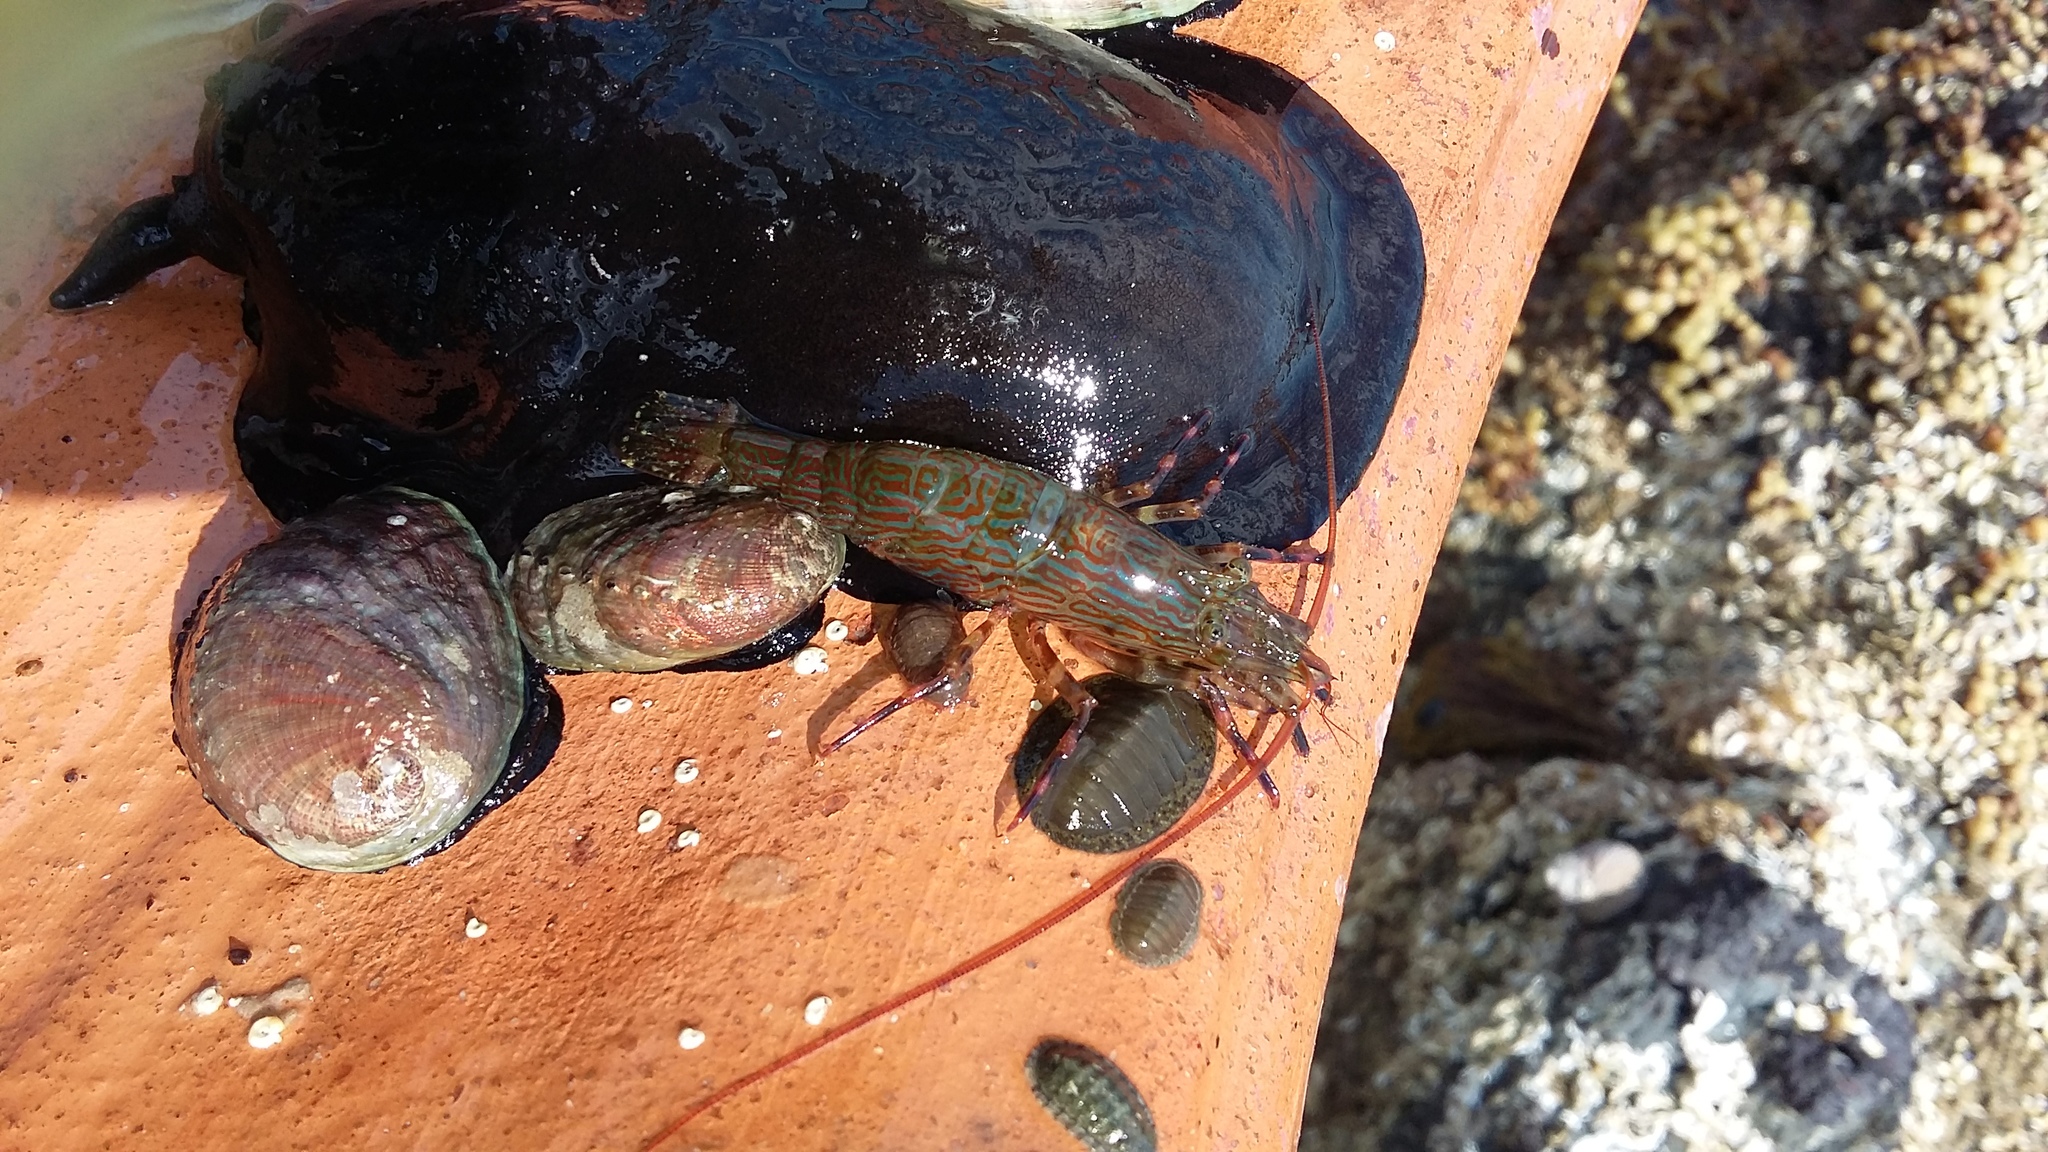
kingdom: Animalia
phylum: Arthropoda
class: Malacostraca
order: Decapoda
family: Hippolytidae
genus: Alope
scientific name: Alope spinifrons
